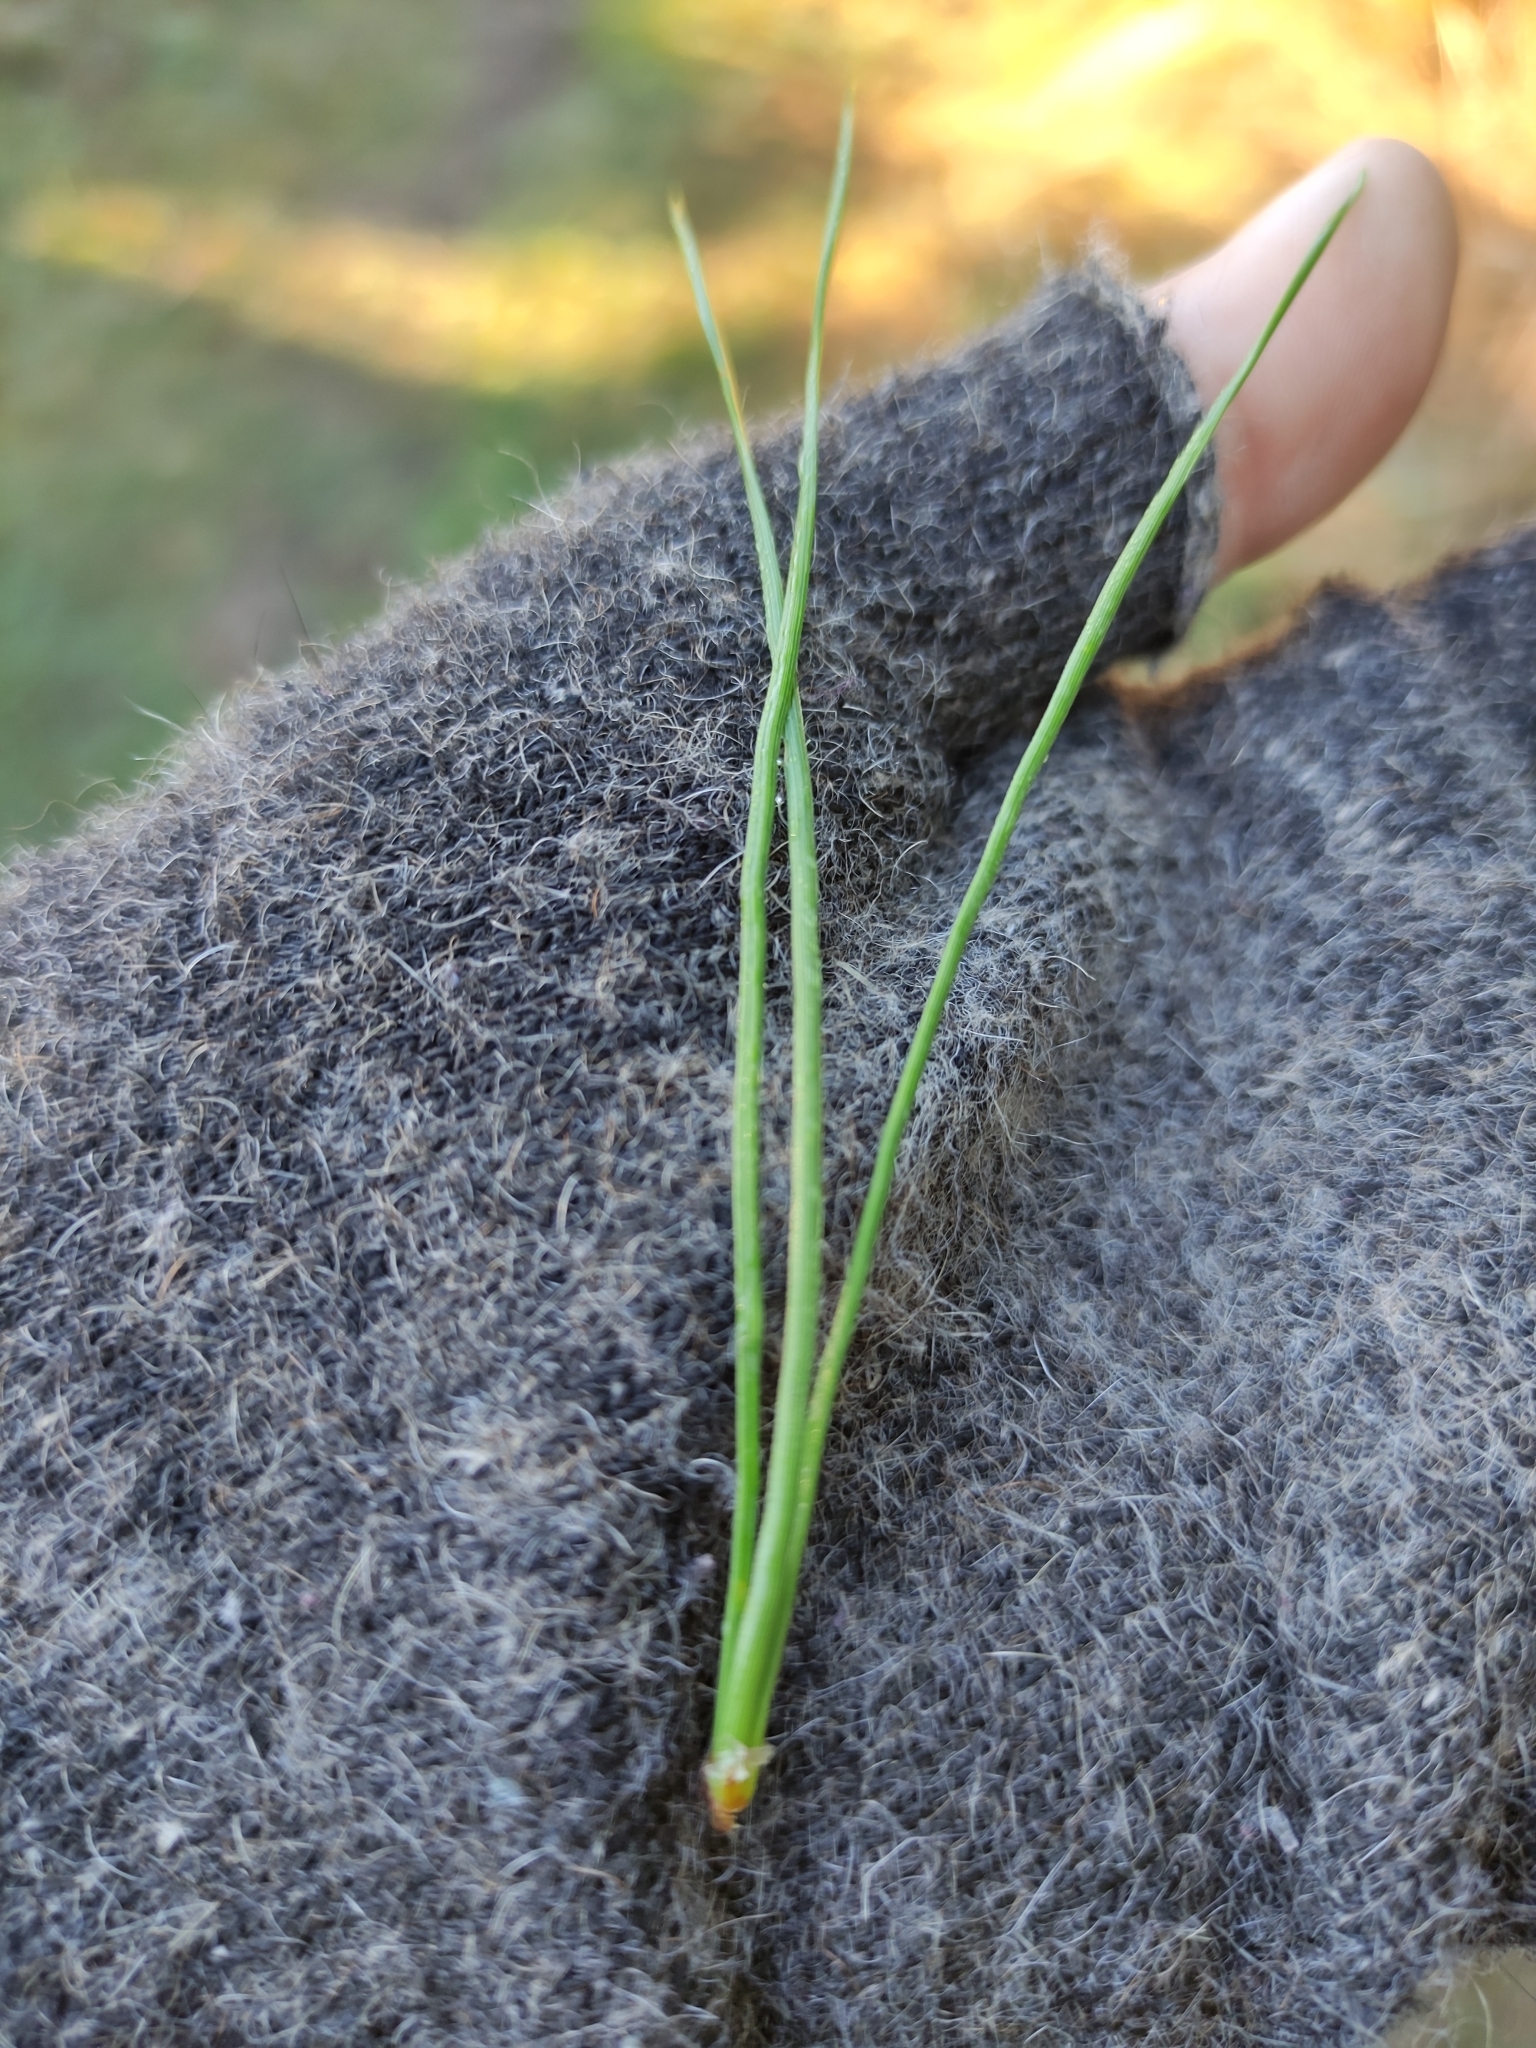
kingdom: Plantae
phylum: Tracheophyta
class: Pinopsida
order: Pinales
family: Pinaceae
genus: Pinus
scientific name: Pinus radiata
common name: Monterey pine
